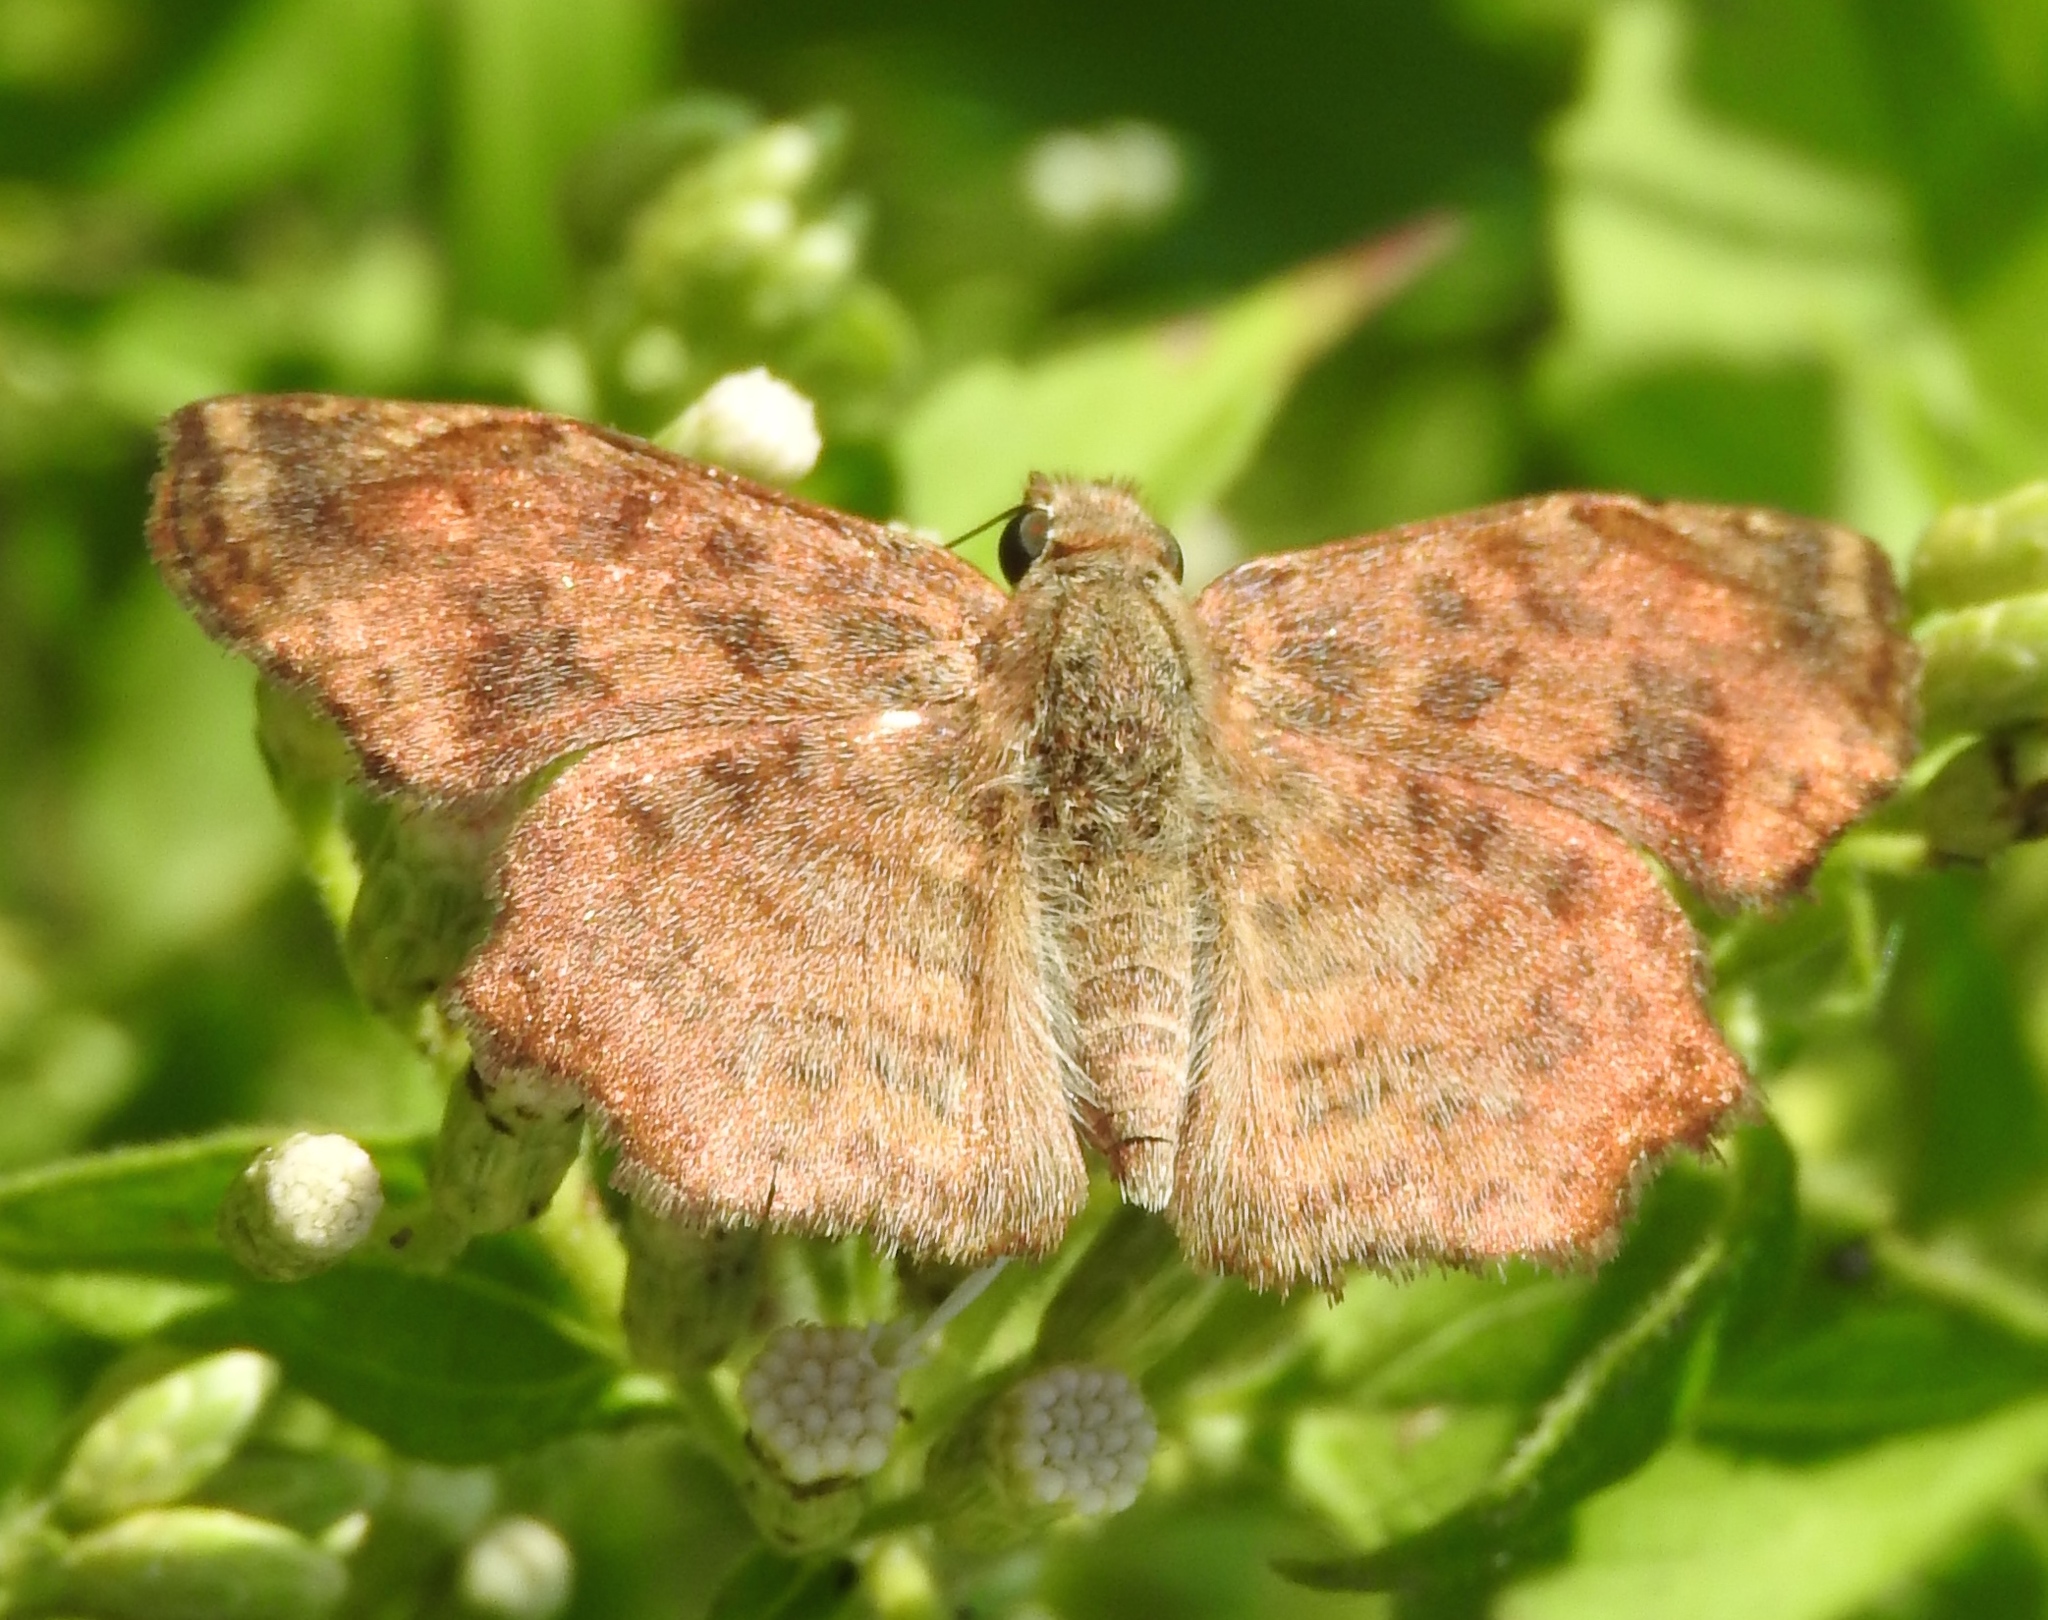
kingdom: Animalia
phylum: Arthropoda
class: Insecta
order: Lepidoptera
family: Hesperiidae
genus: Antigonus
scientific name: Antigonus erosus
